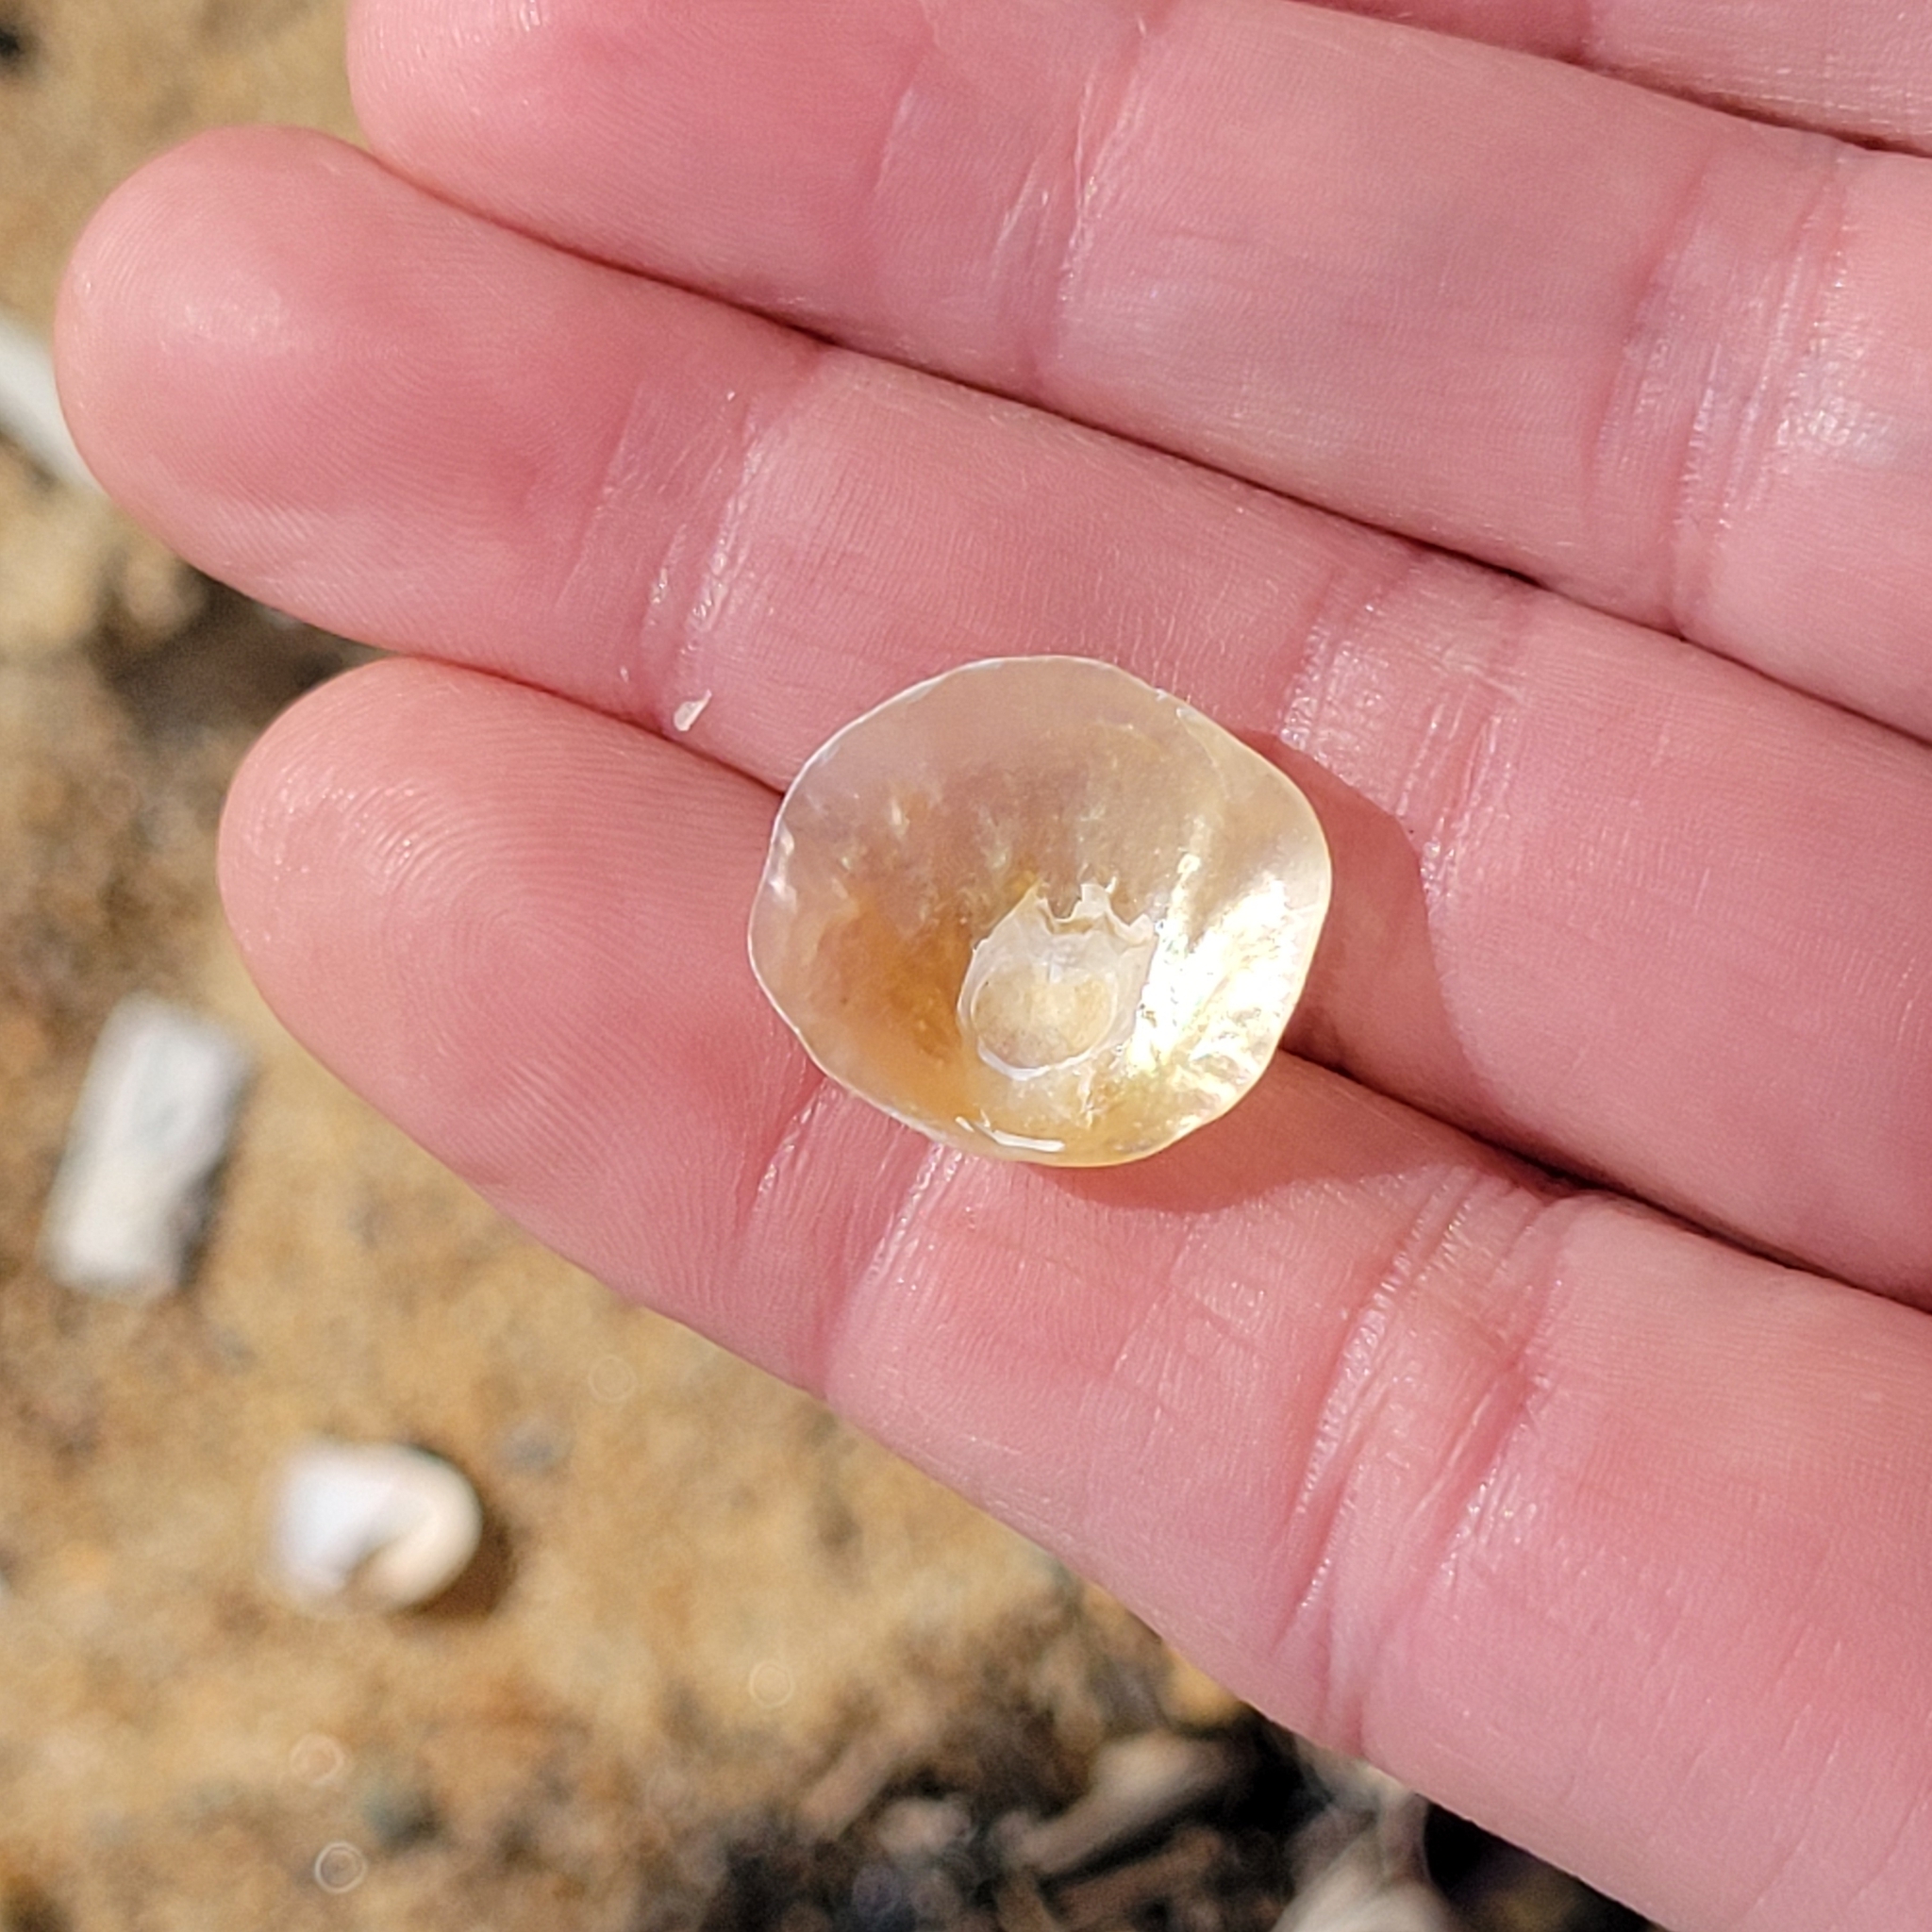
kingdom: Animalia
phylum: Mollusca
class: Bivalvia
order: Pectinida
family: Anomiidae
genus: Anomia
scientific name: Anomia simplex
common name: Common jingle shell
